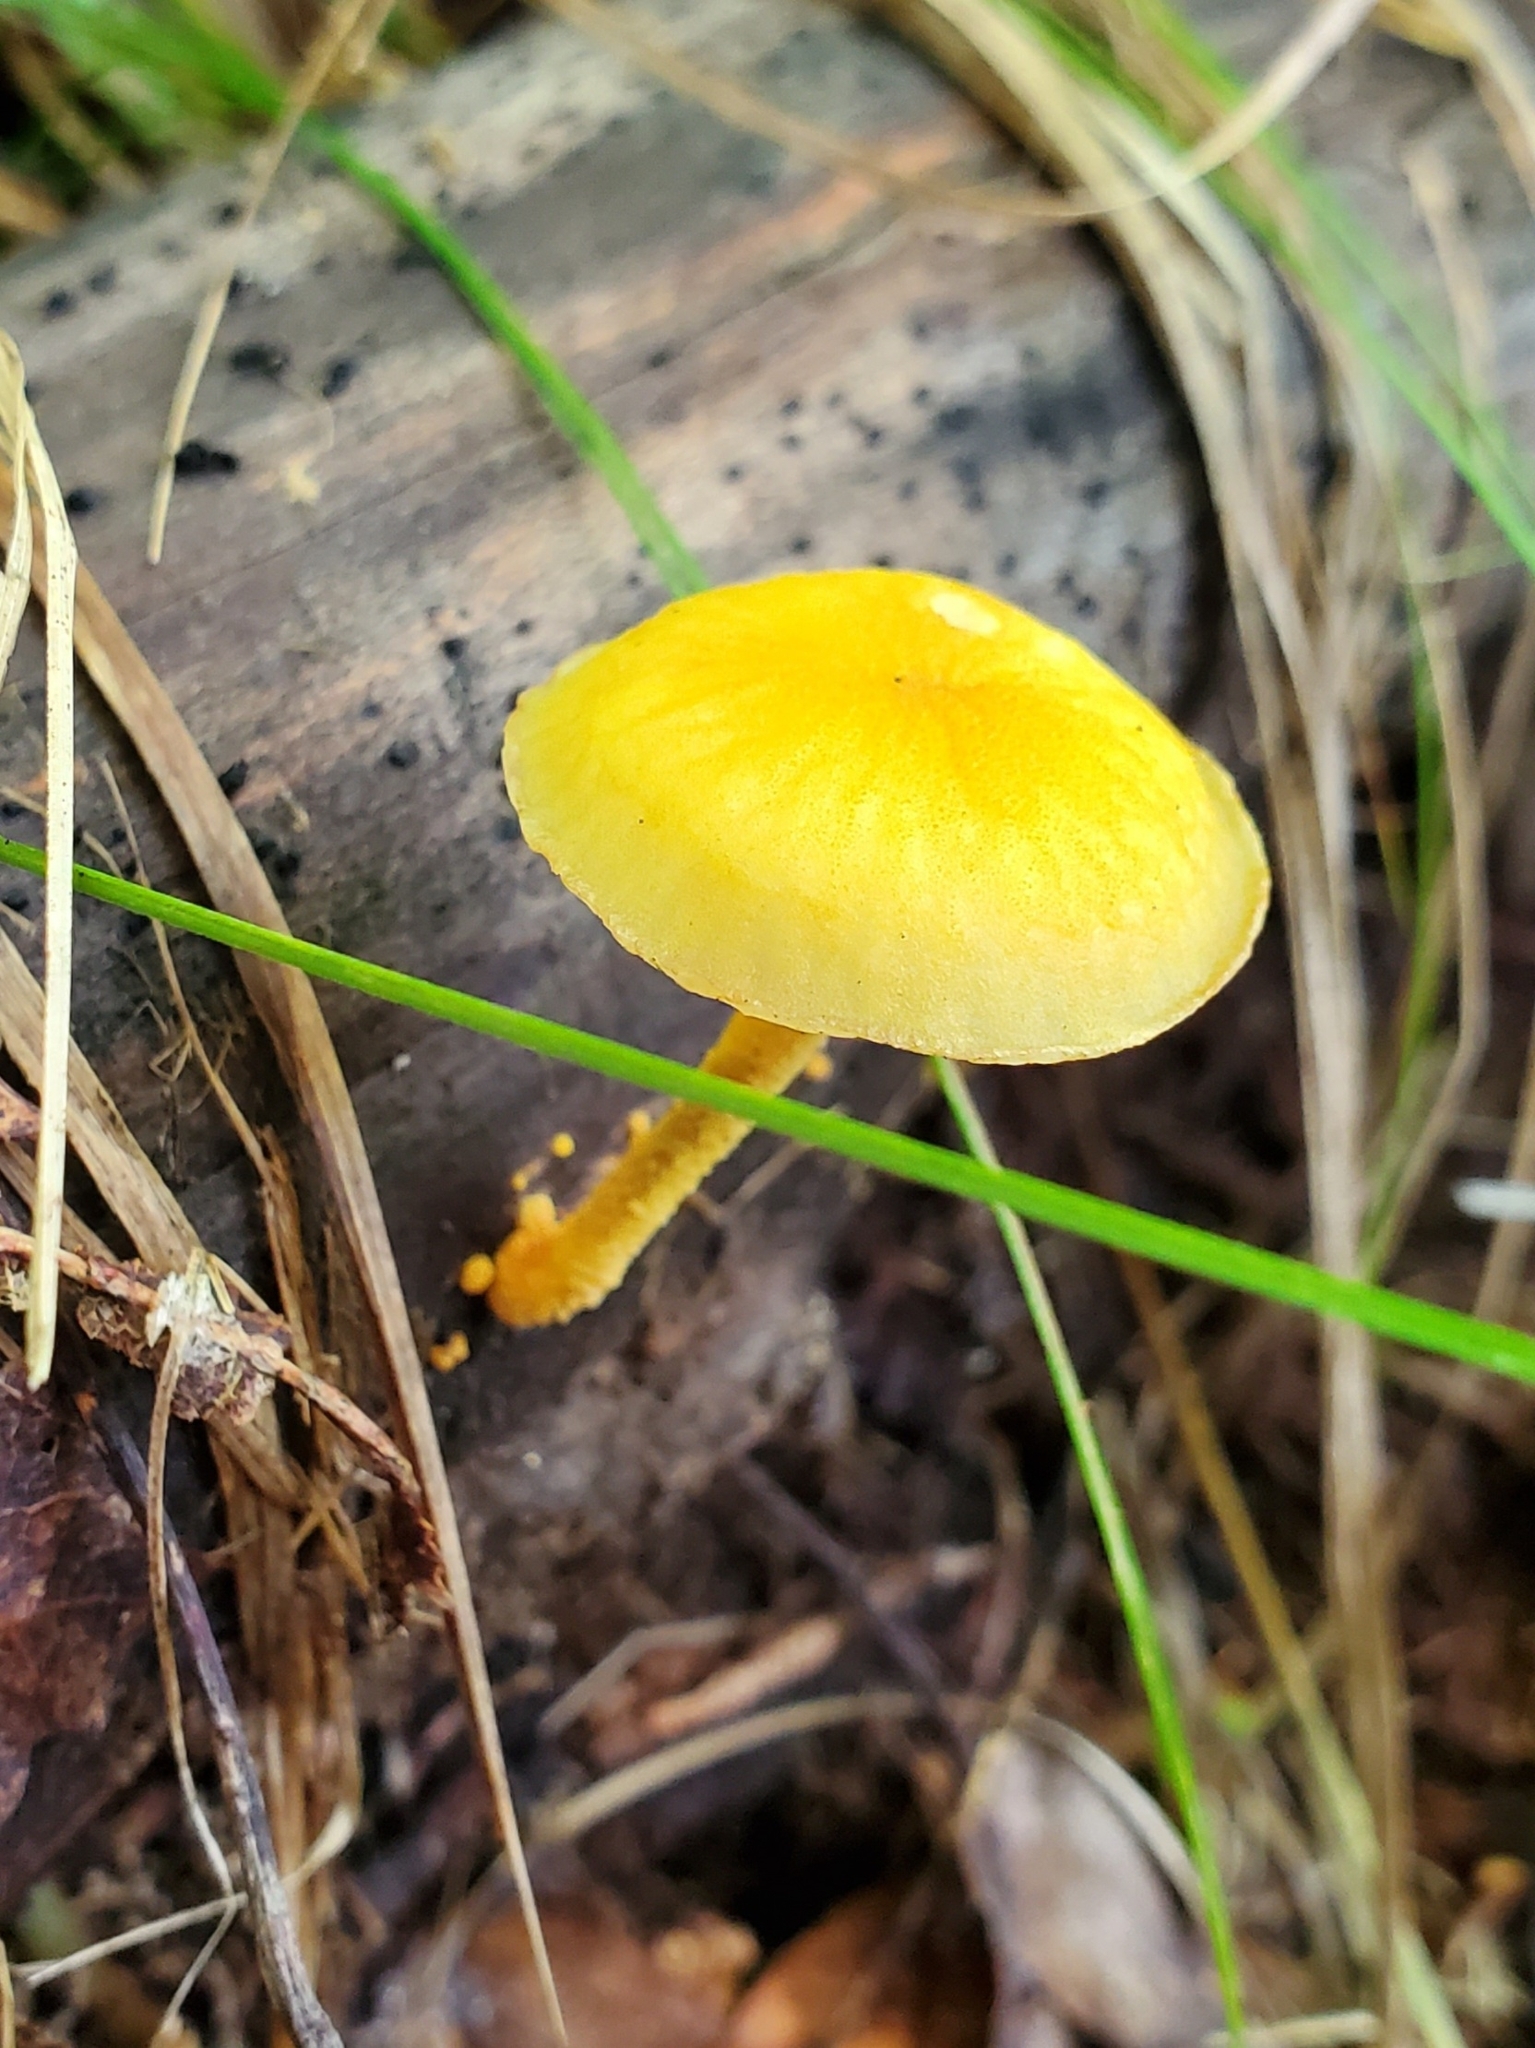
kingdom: Fungi
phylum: Basidiomycota
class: Agaricomycetes
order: Agaricales
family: Physalacriaceae
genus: Cyptotrama
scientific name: Cyptotrama chrysopepla
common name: Golden coincap
